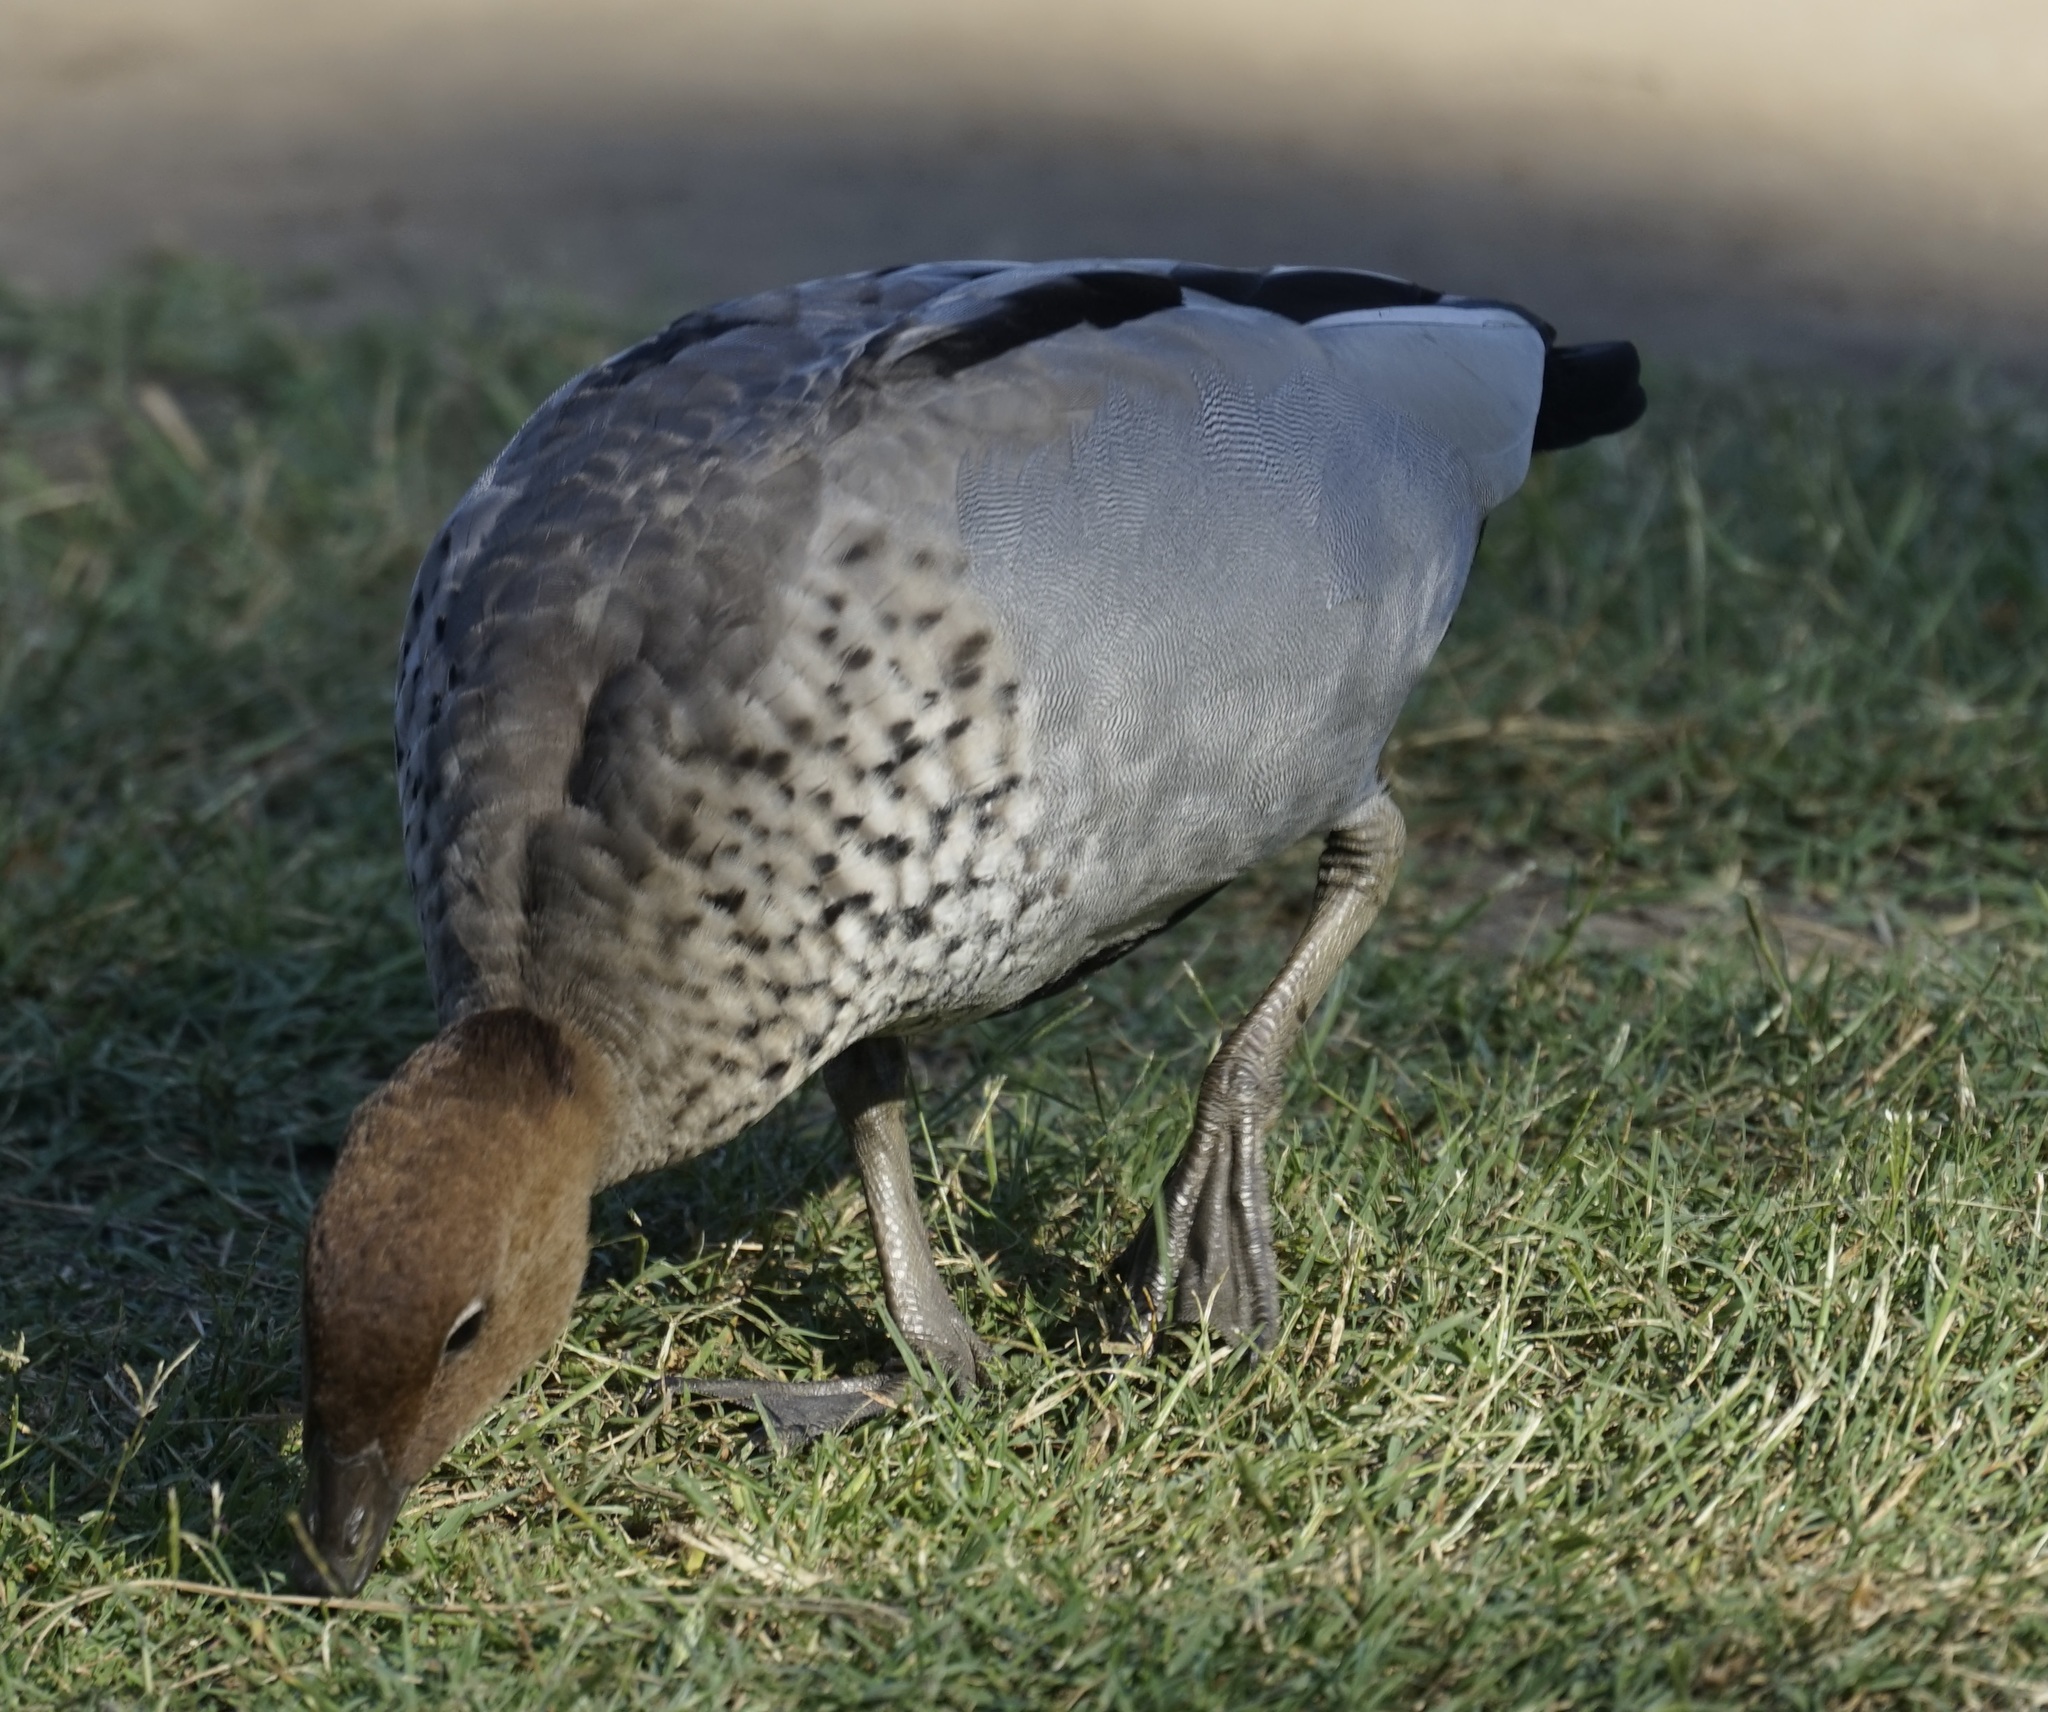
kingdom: Animalia
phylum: Chordata
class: Aves
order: Anseriformes
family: Anatidae
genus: Chenonetta
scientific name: Chenonetta jubata
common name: Maned duck
